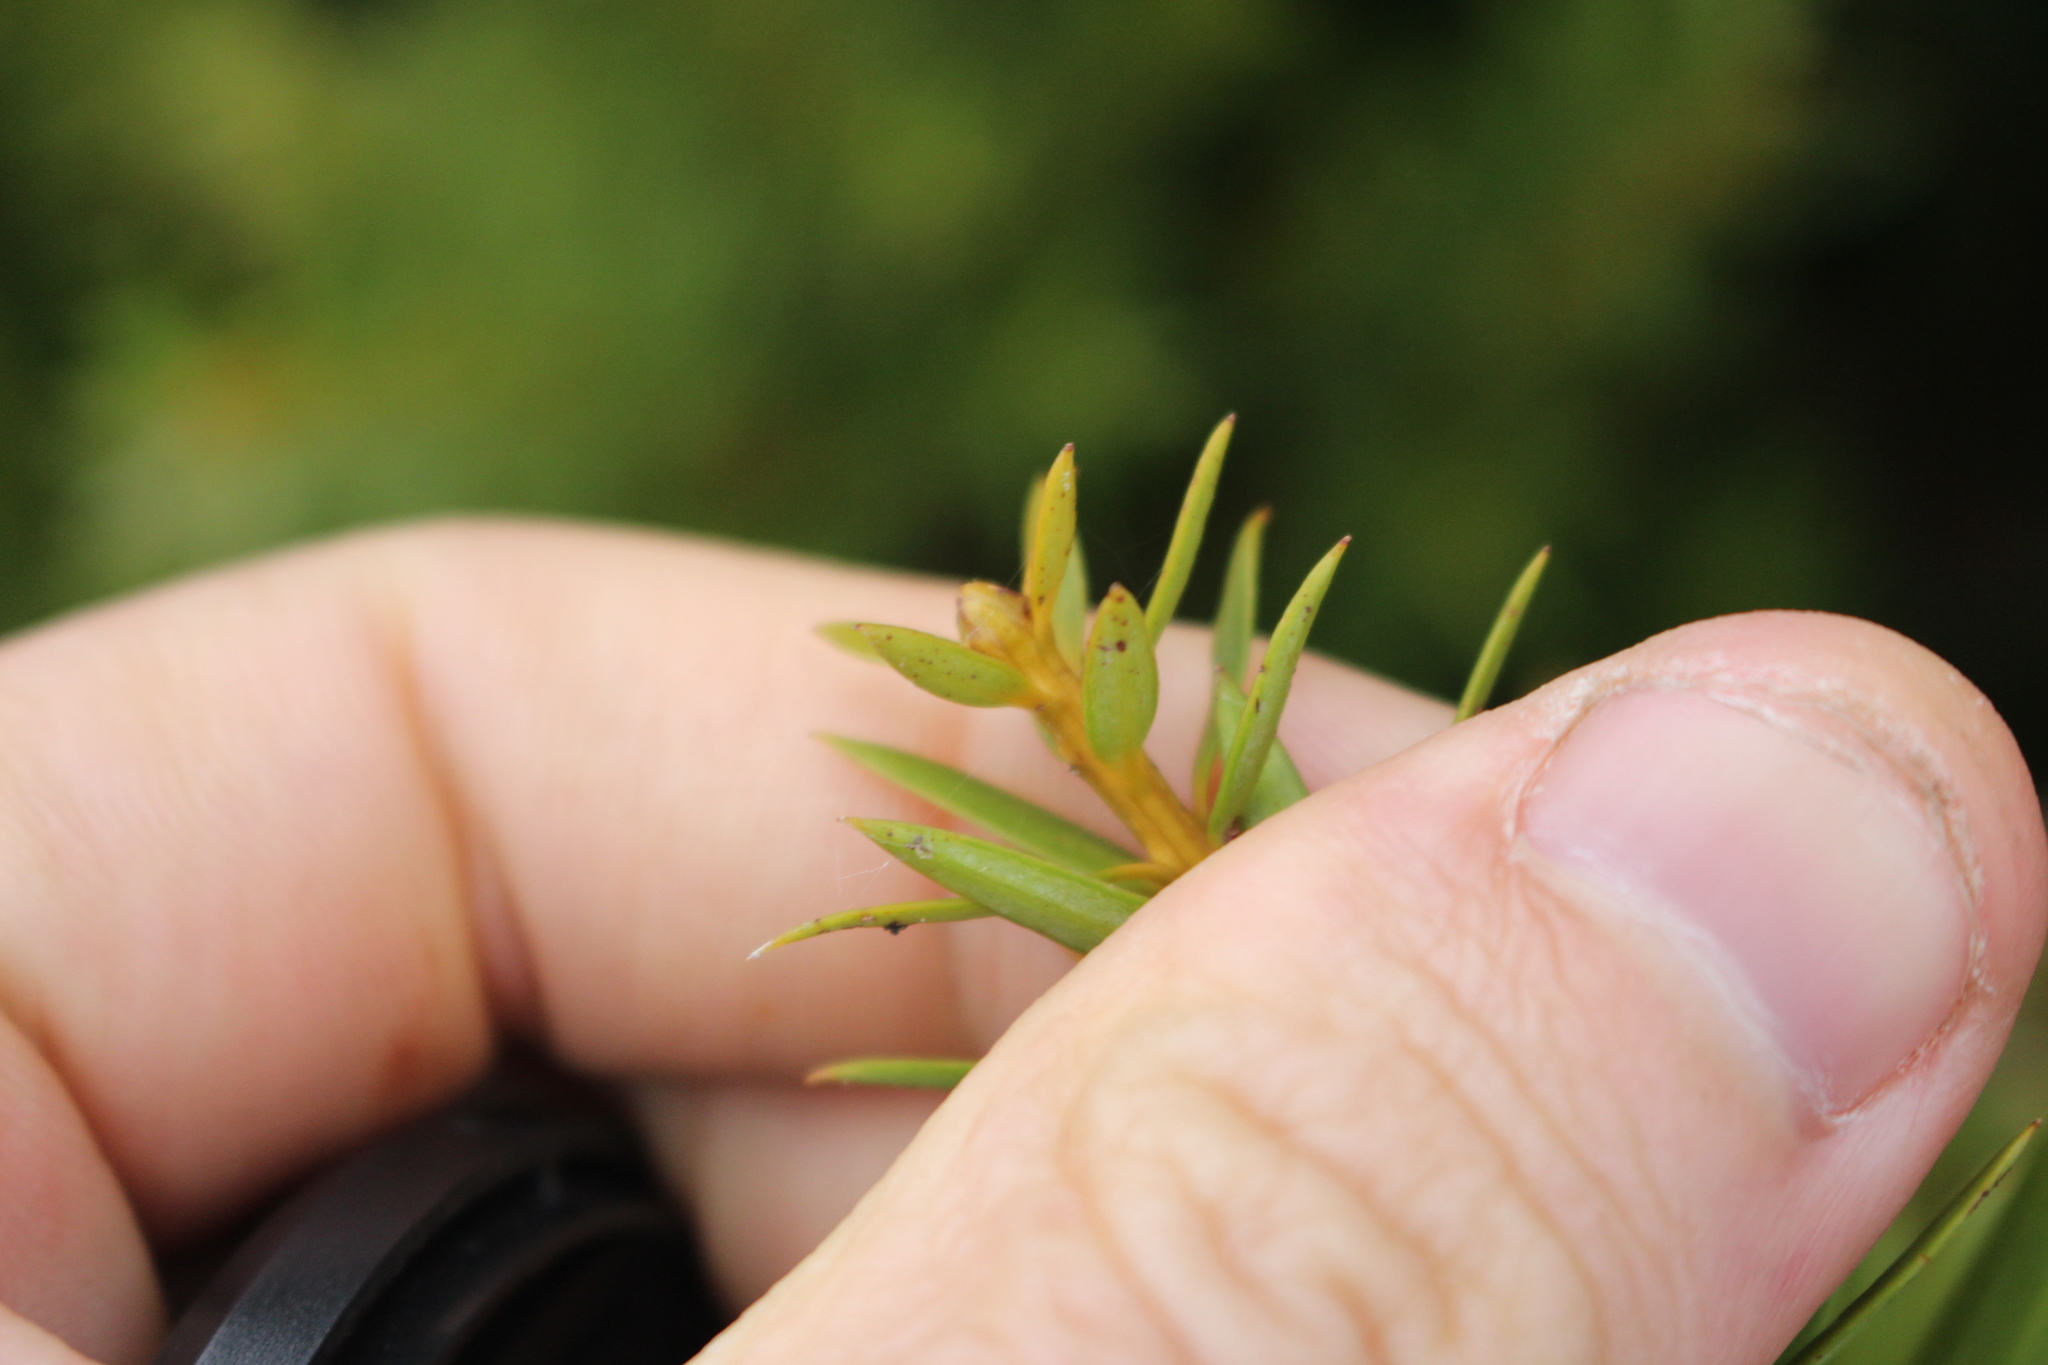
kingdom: Plantae
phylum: Tracheophyta
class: Pinopsida
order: Pinales
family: Podocarpaceae
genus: Podocarpus
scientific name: Podocarpus laetus
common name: Hall's totara
